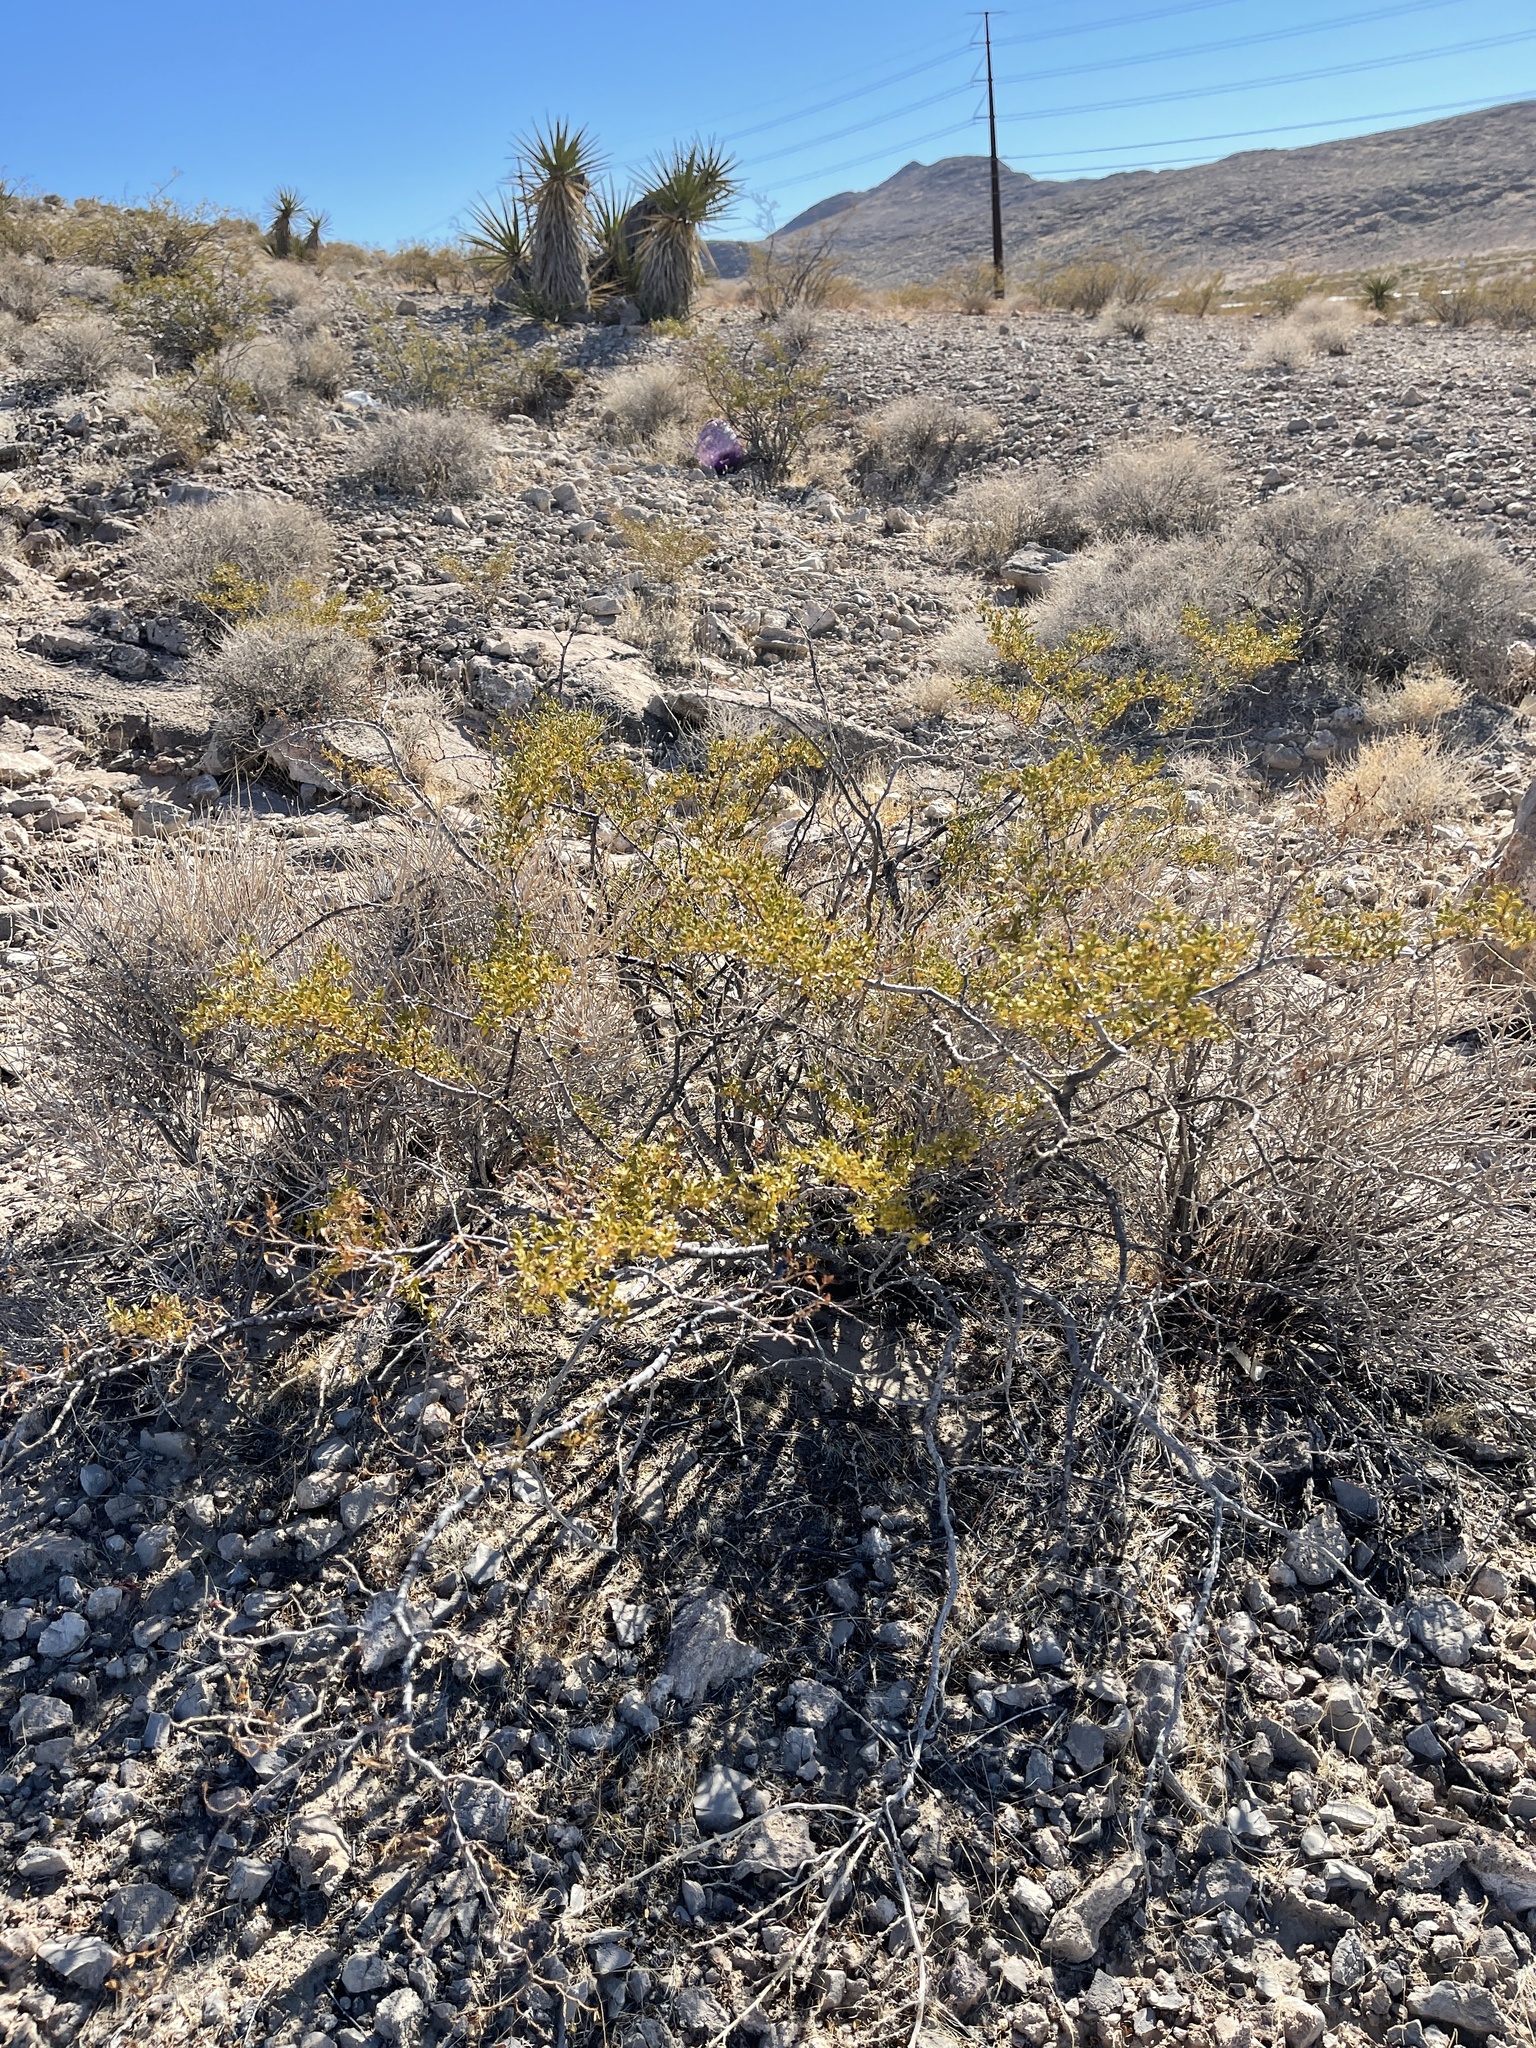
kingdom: Plantae
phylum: Tracheophyta
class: Magnoliopsida
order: Zygophyllales
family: Zygophyllaceae
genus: Larrea
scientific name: Larrea tridentata
